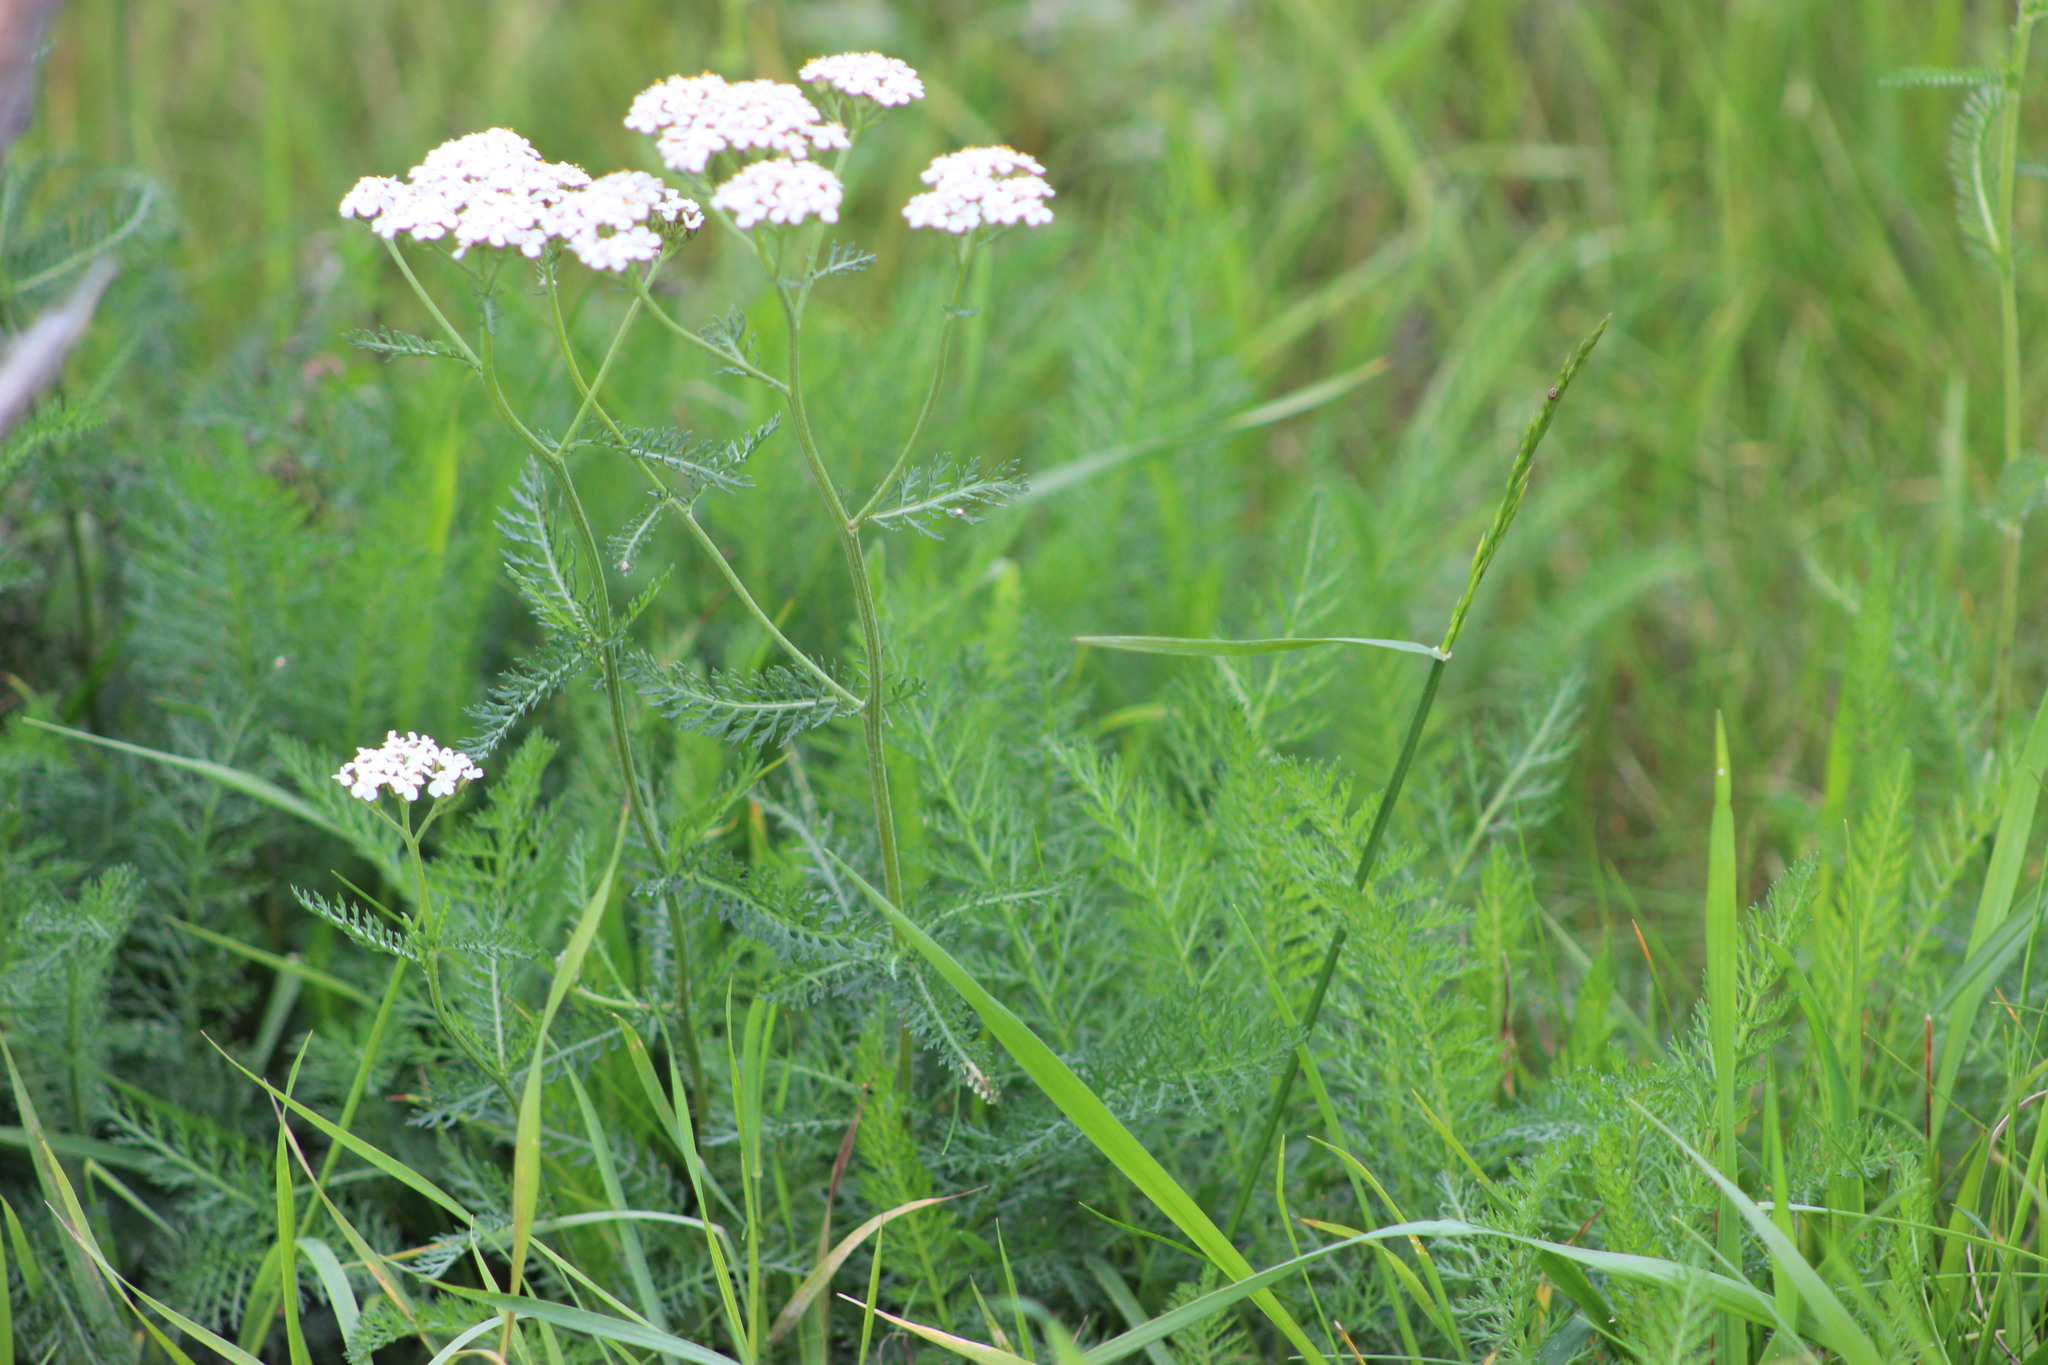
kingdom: Plantae
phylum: Tracheophyta
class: Magnoliopsida
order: Asterales
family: Asteraceae
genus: Achillea
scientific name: Achillea millefolium
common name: Yarrow
